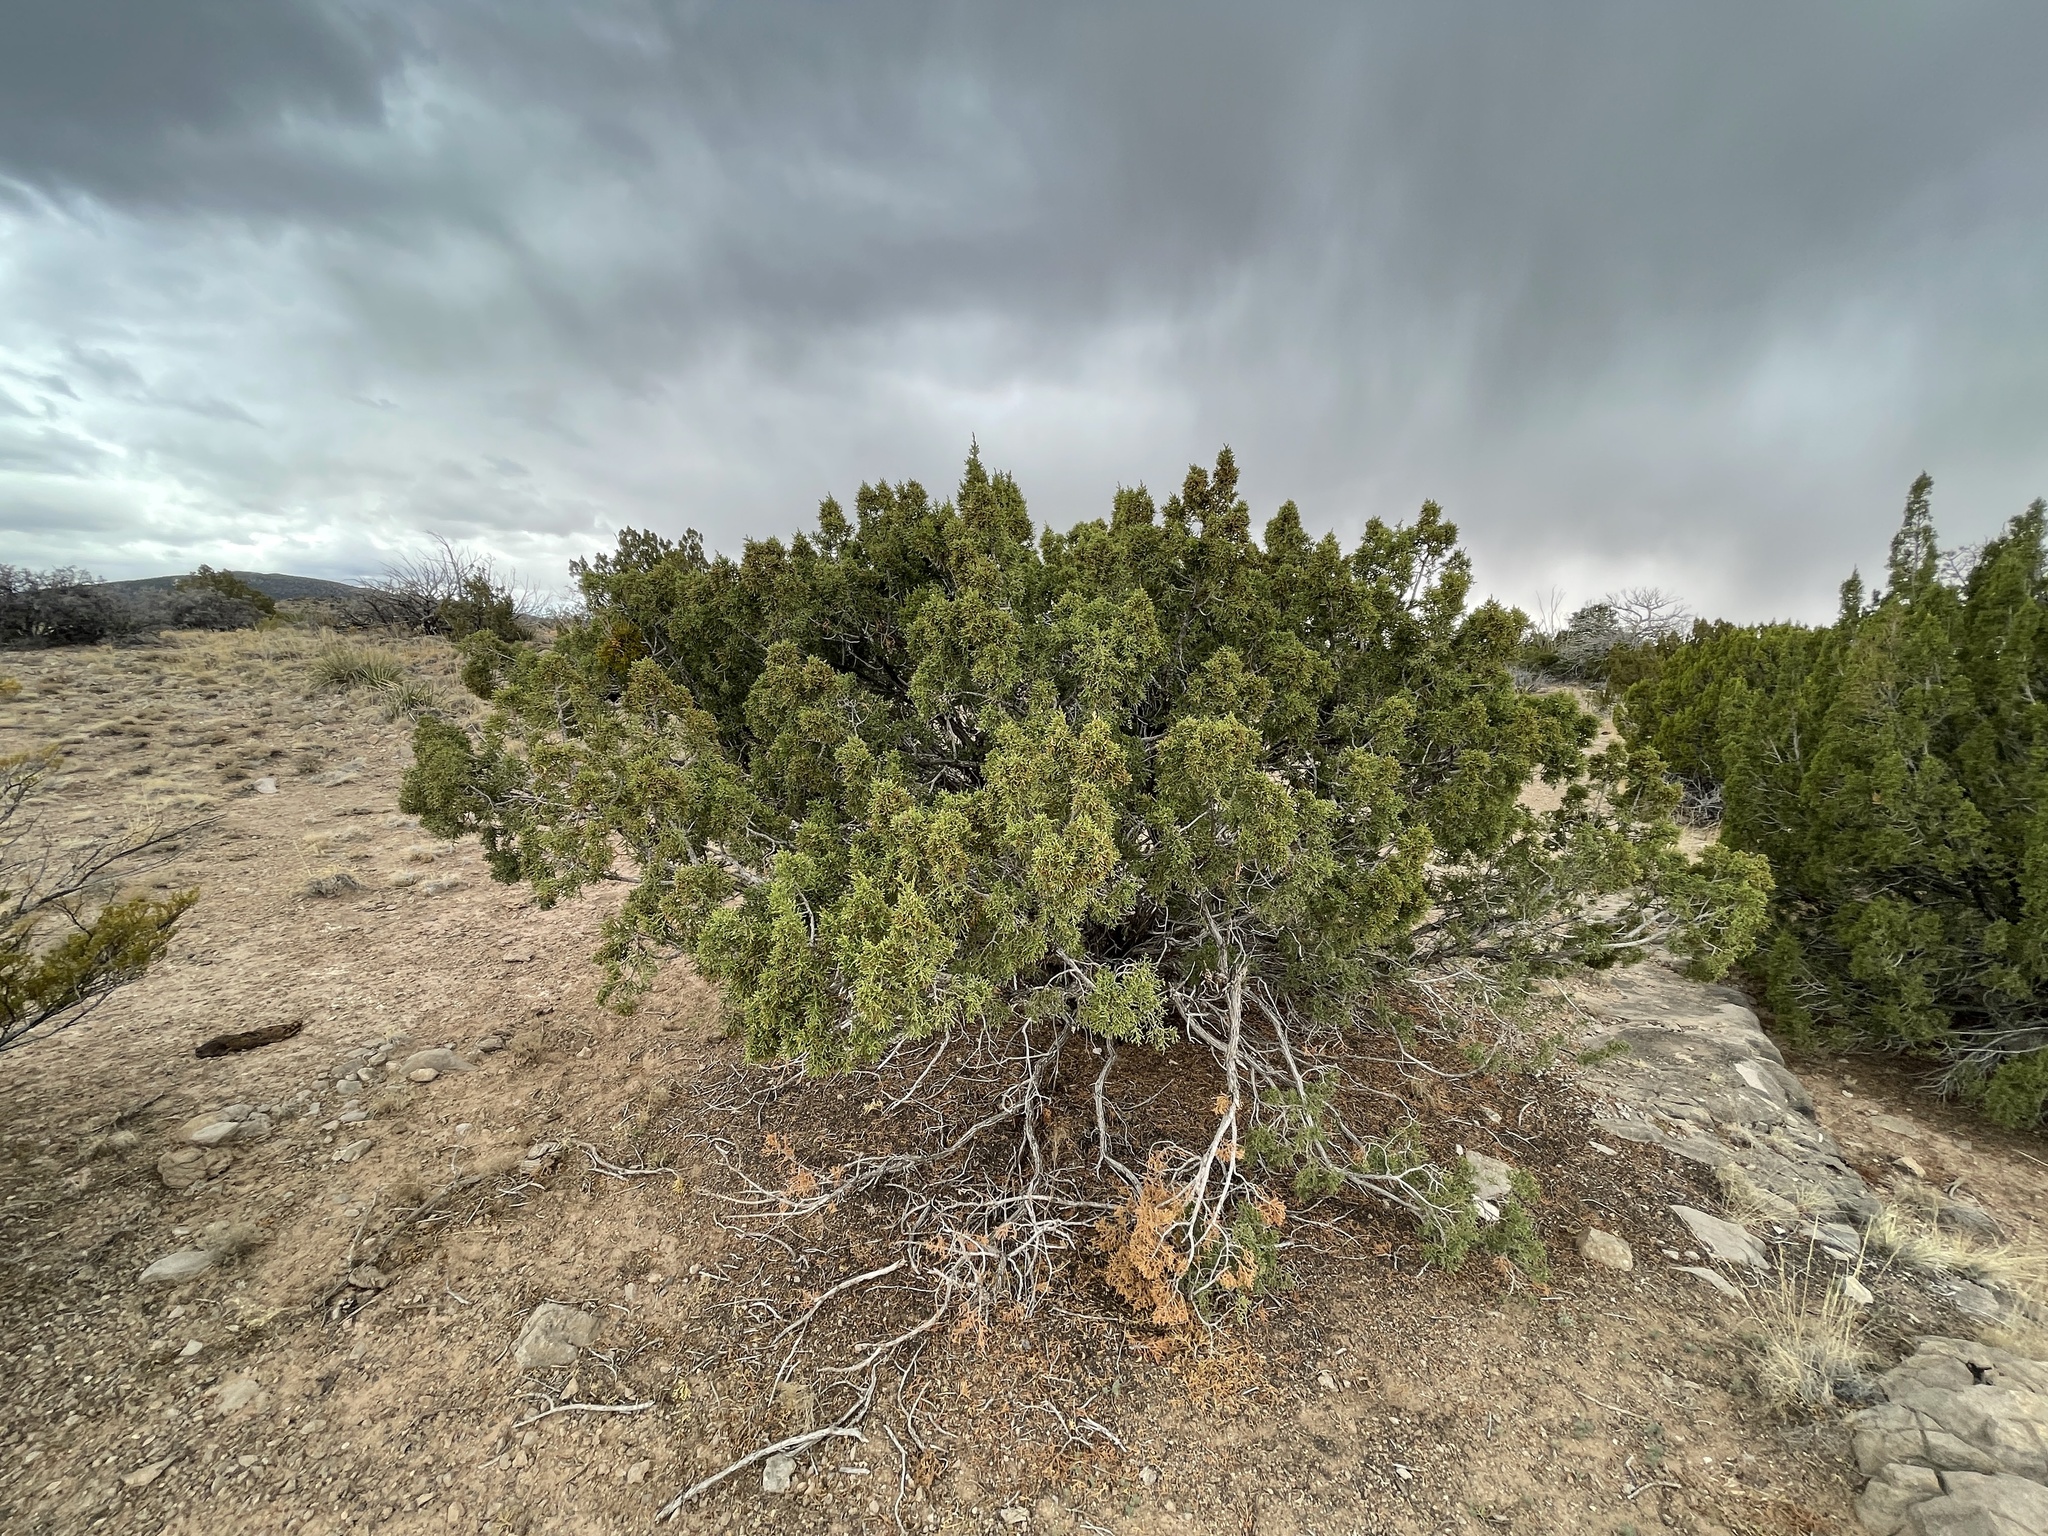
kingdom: Plantae
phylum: Tracheophyta
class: Pinopsida
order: Pinales
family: Cupressaceae
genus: Juniperus
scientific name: Juniperus monosperma
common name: One-seed juniper
